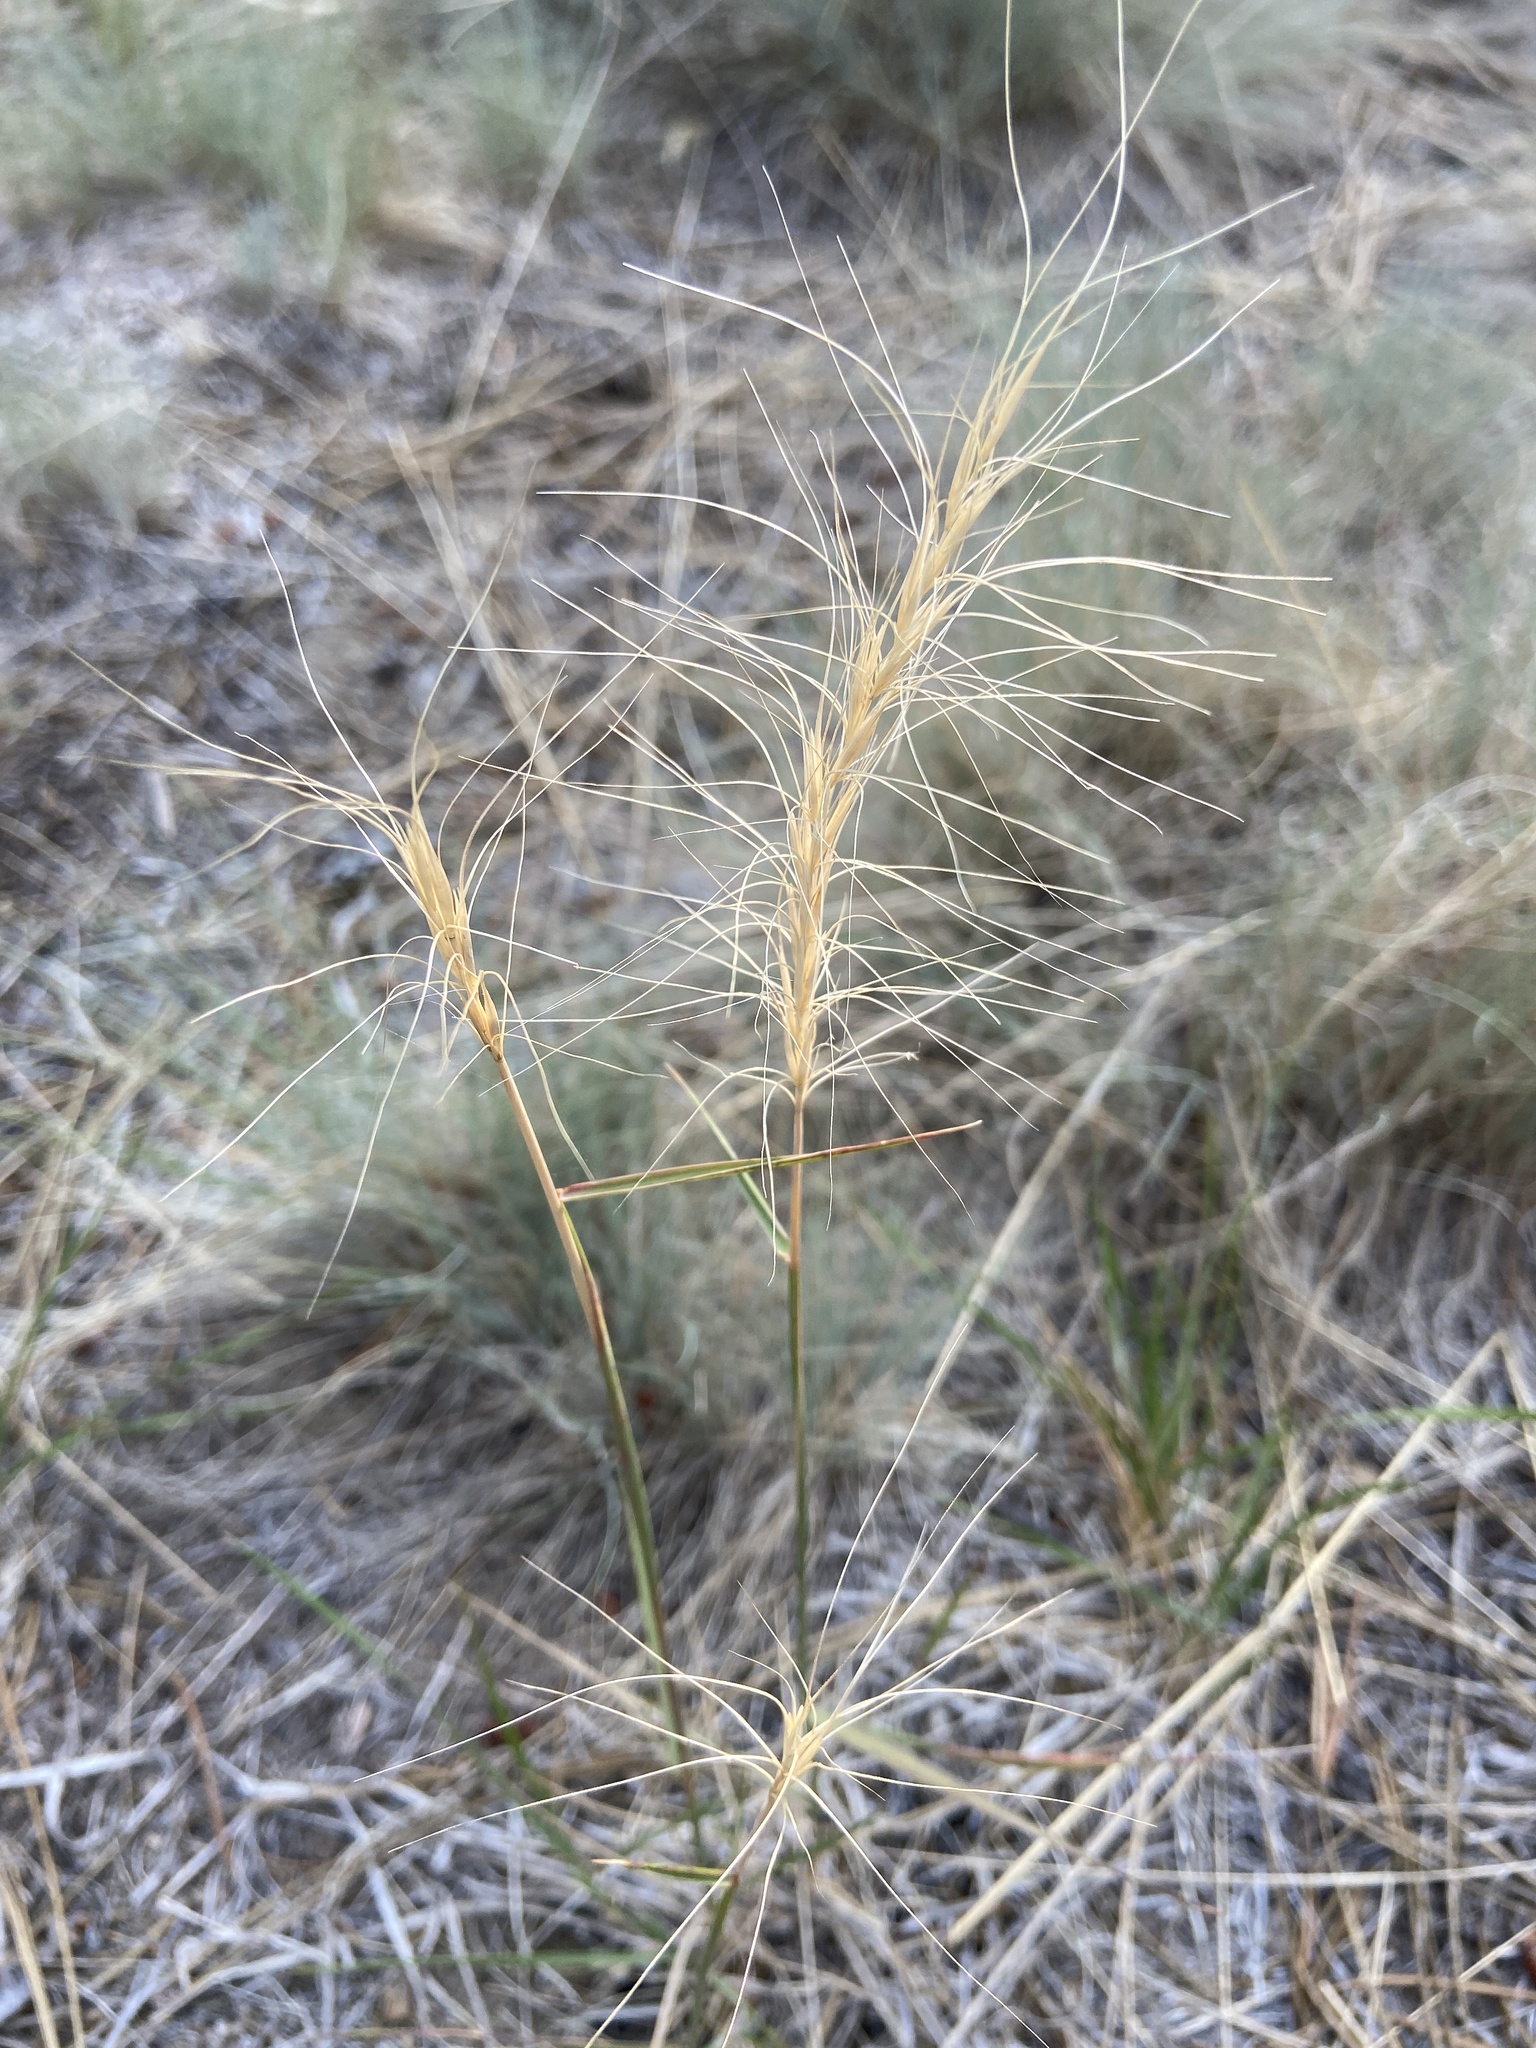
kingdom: Plantae
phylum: Tracheophyta
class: Liliopsida
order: Poales
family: Poaceae
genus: Elymus
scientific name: Elymus elymoides
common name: Bottlebrush squirreltail
